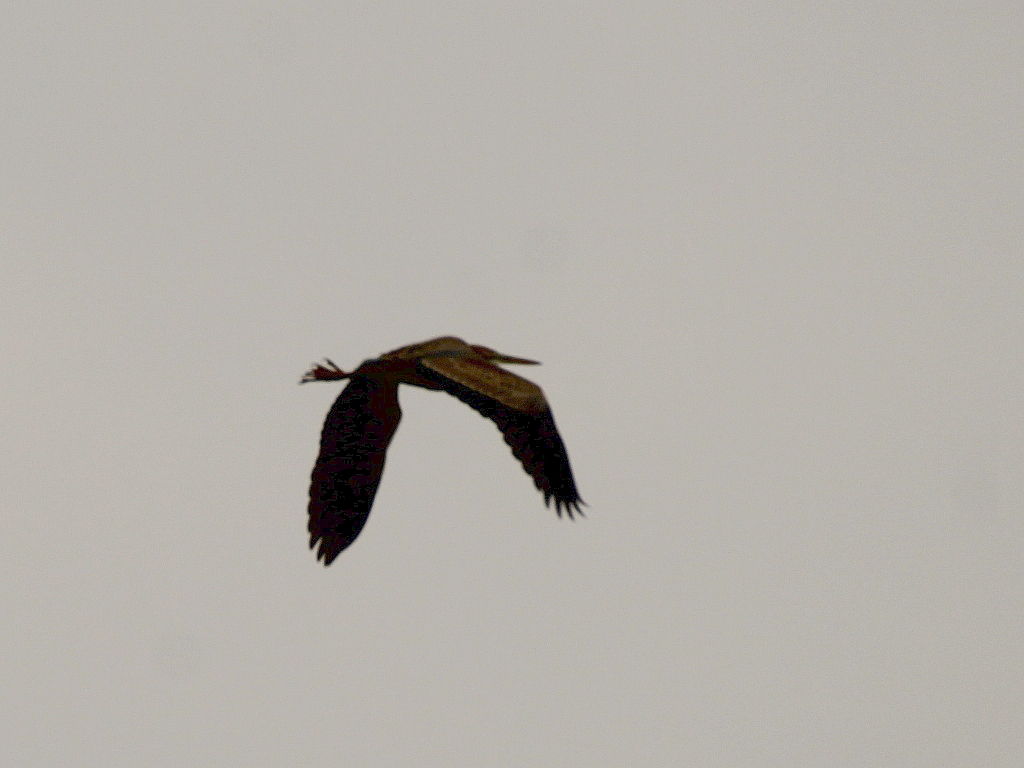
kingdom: Animalia
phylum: Chordata
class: Aves
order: Pelecaniformes
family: Ardeidae
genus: Ardea
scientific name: Ardea purpurea
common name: Purple heron
